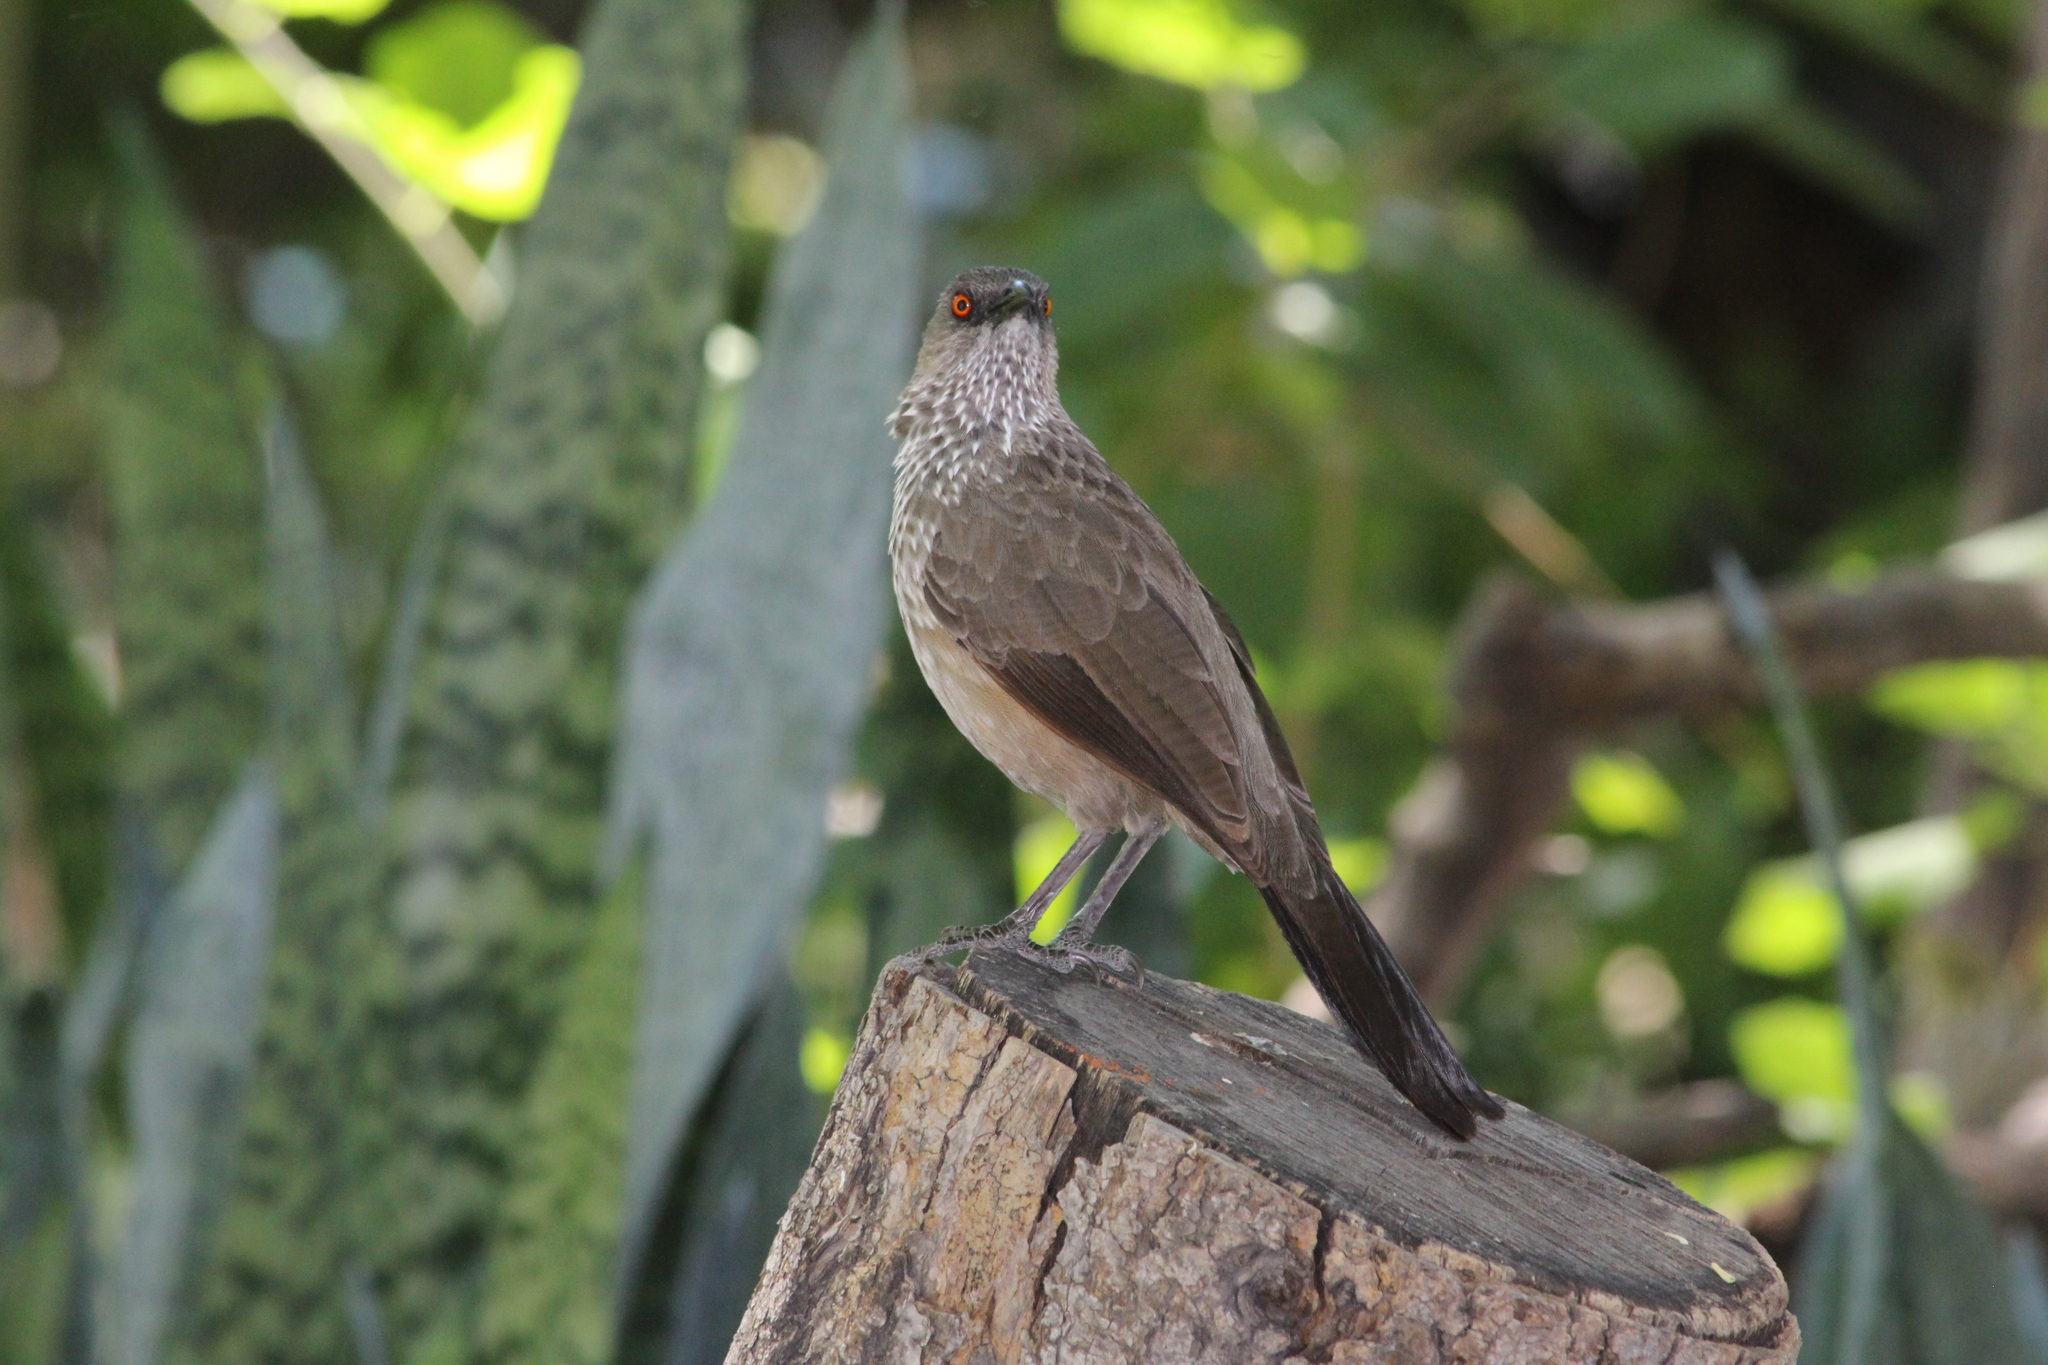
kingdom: Animalia
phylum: Chordata
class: Aves
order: Passeriformes
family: Leiothrichidae
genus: Turdoides
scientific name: Turdoides jardineii
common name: Arrow-marked babbler
